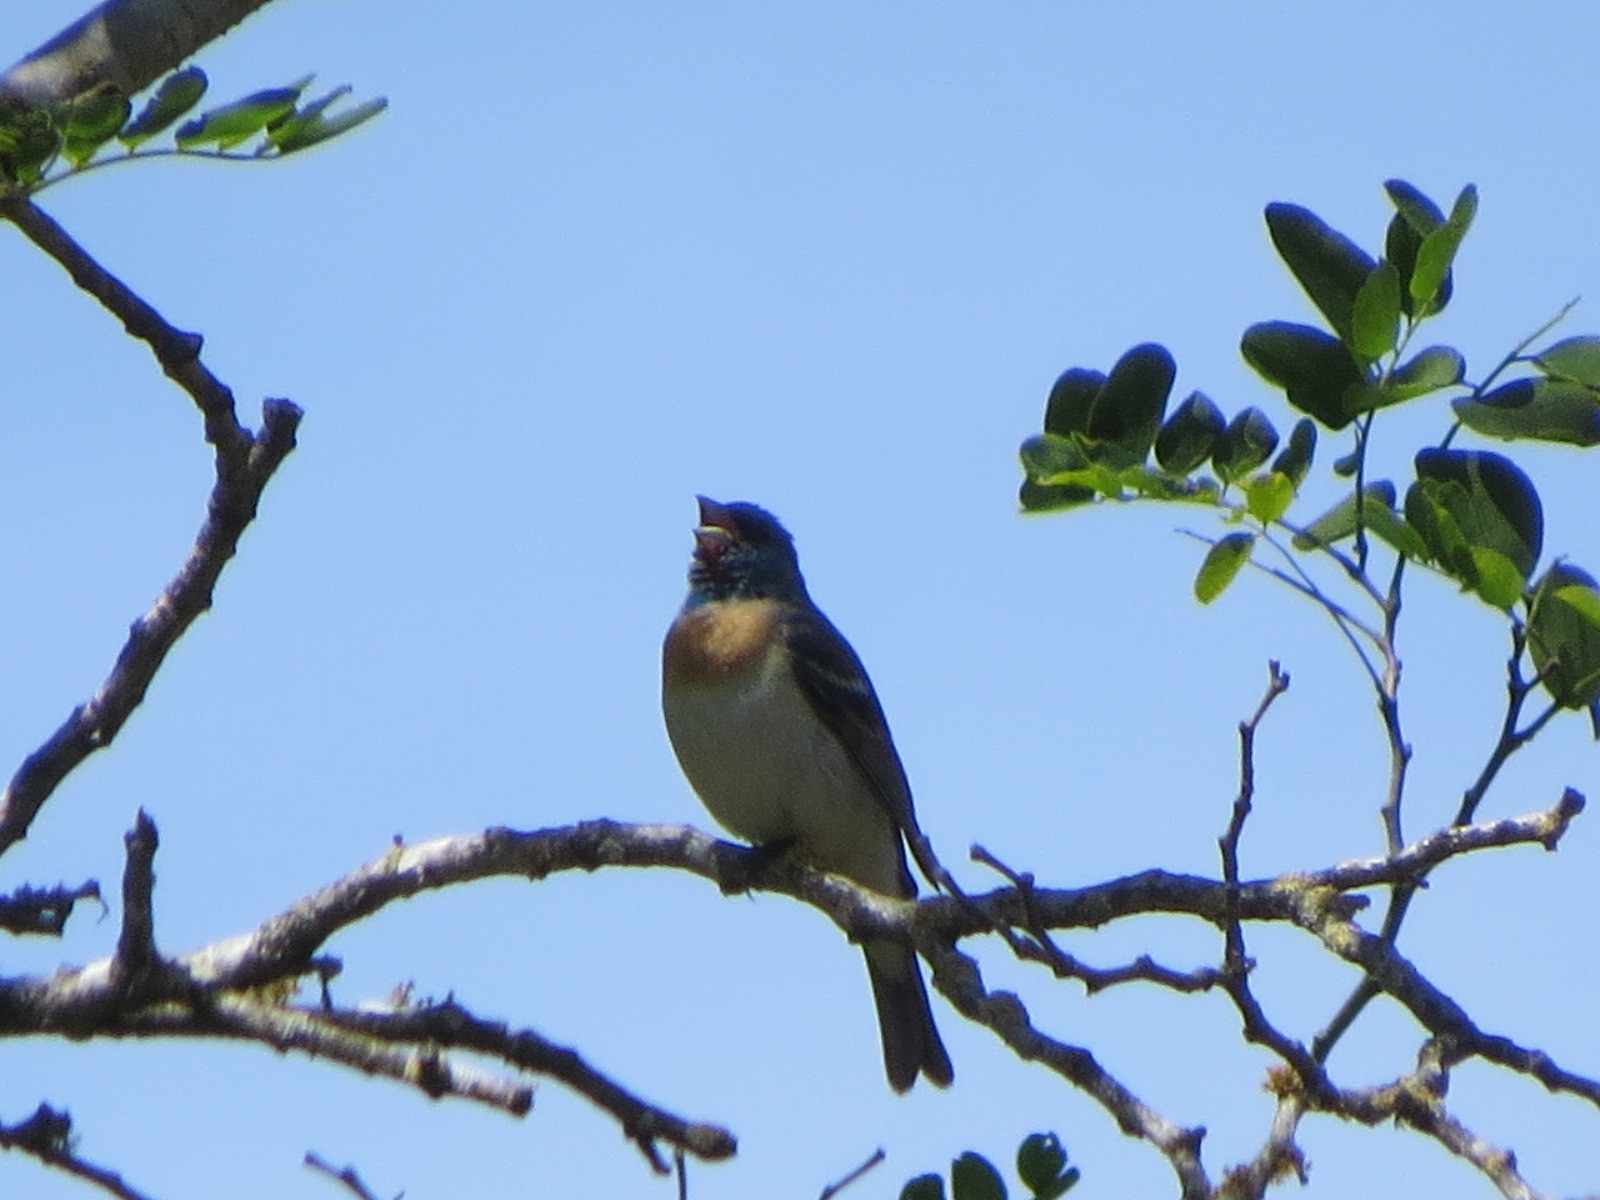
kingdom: Animalia
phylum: Chordata
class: Aves
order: Passeriformes
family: Cardinalidae
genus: Passerina
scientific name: Passerina amoena
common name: Lazuli bunting
